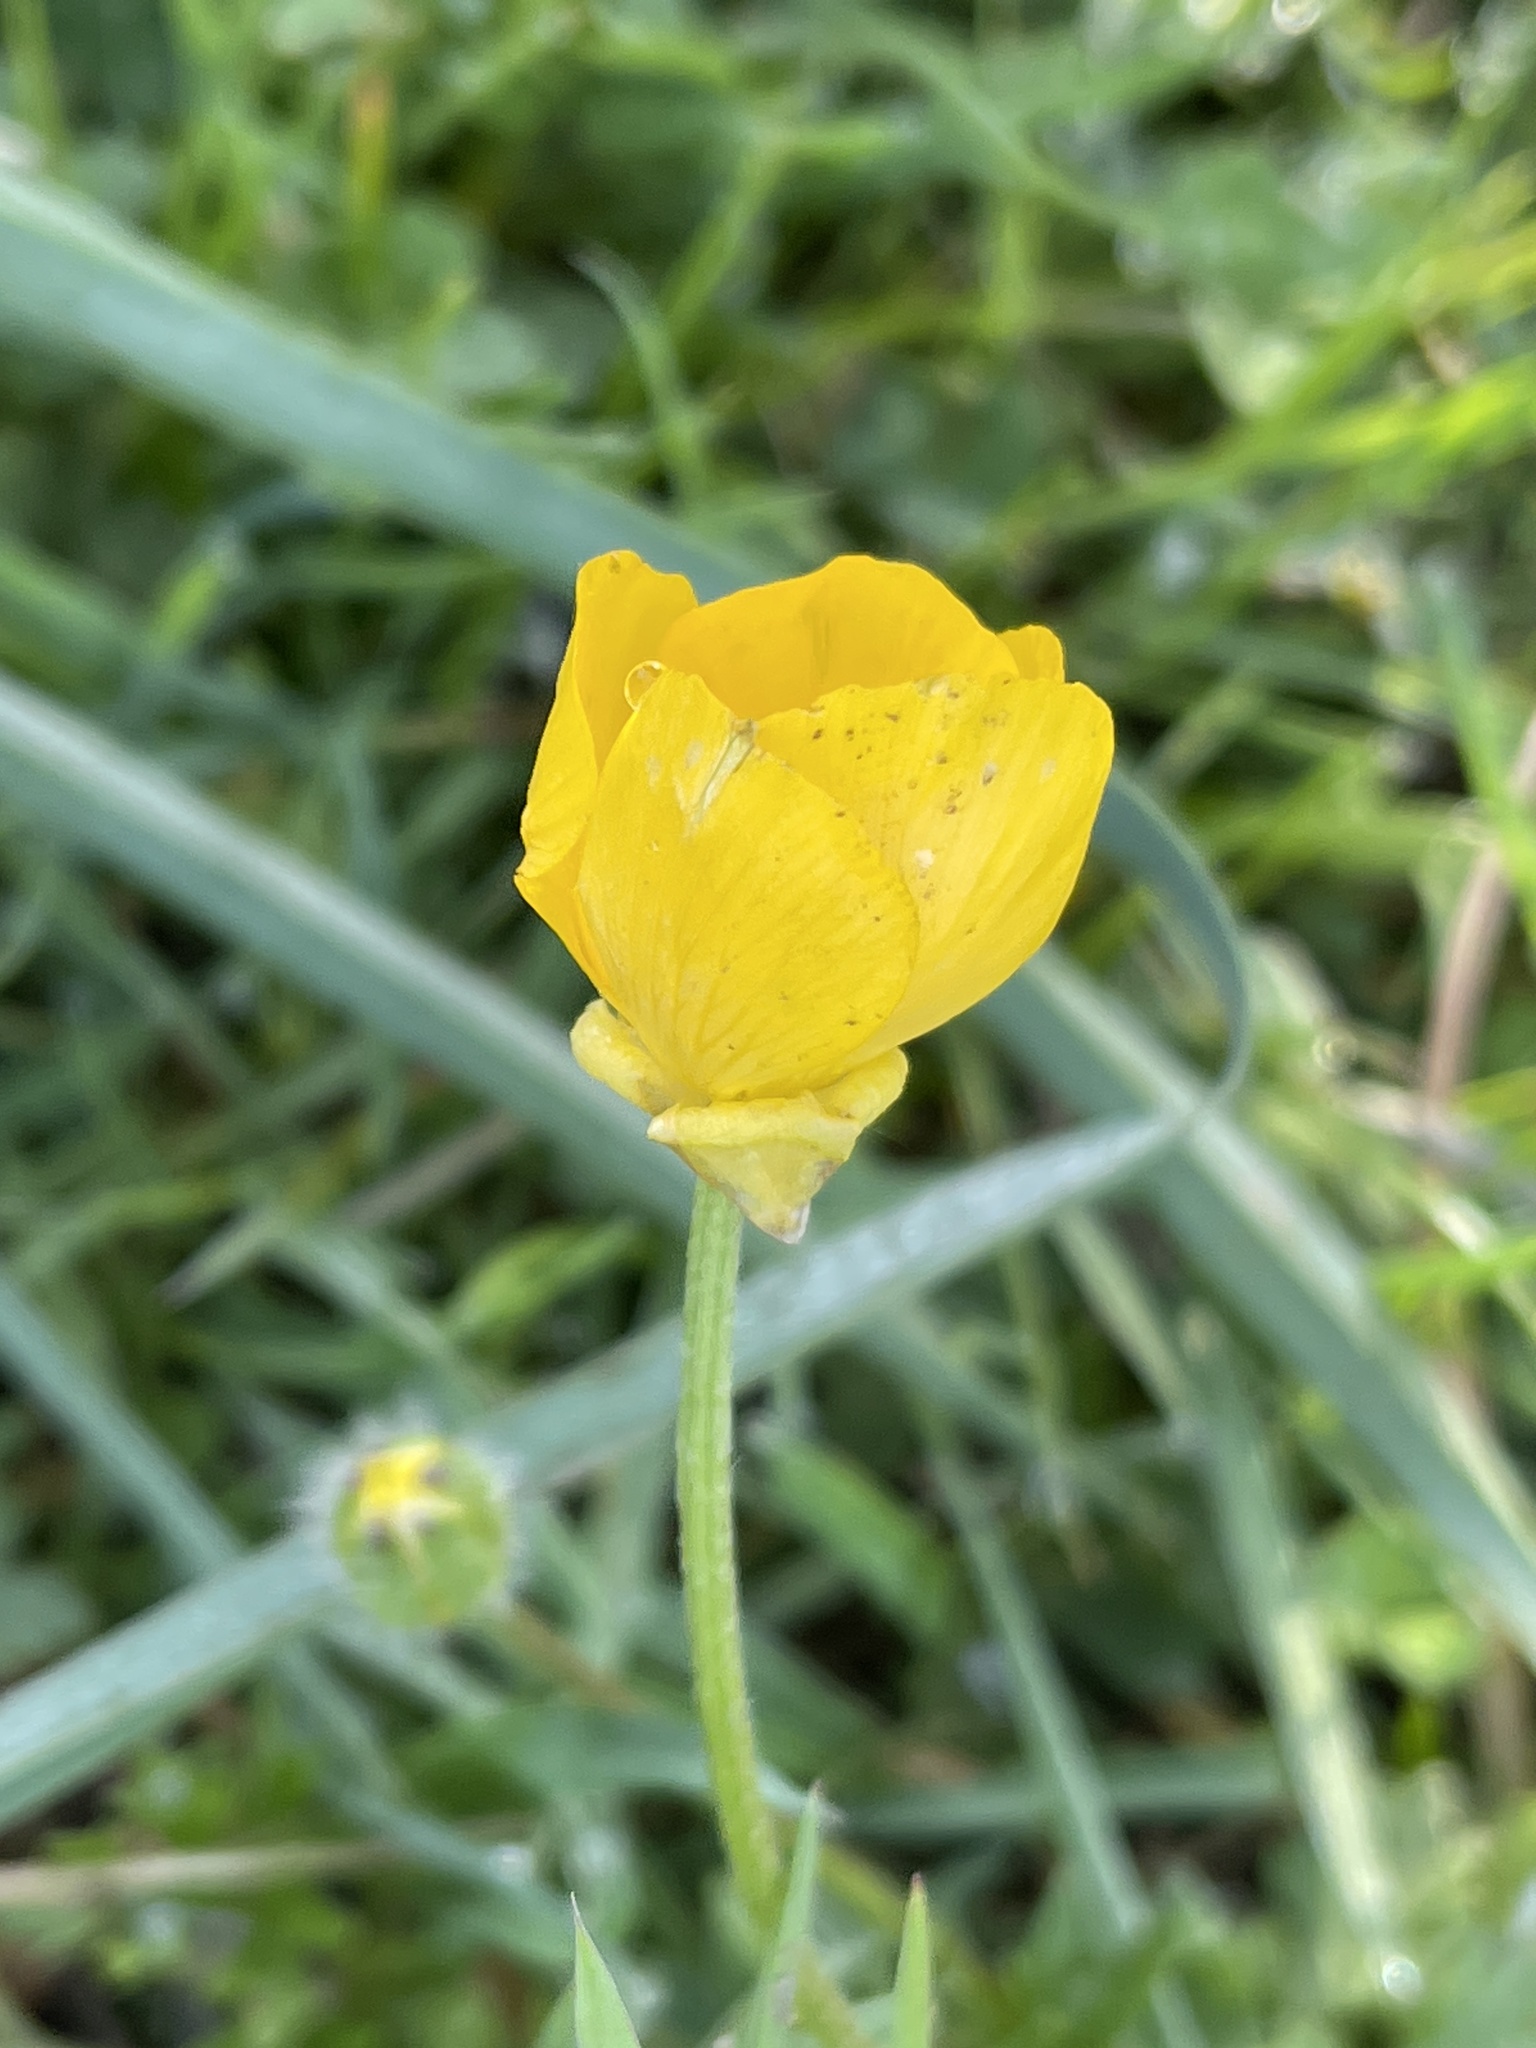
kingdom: Plantae
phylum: Tracheophyta
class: Magnoliopsida
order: Ranunculales
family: Ranunculaceae
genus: Ranunculus
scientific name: Ranunculus bulbosus
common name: Bulbous buttercup
